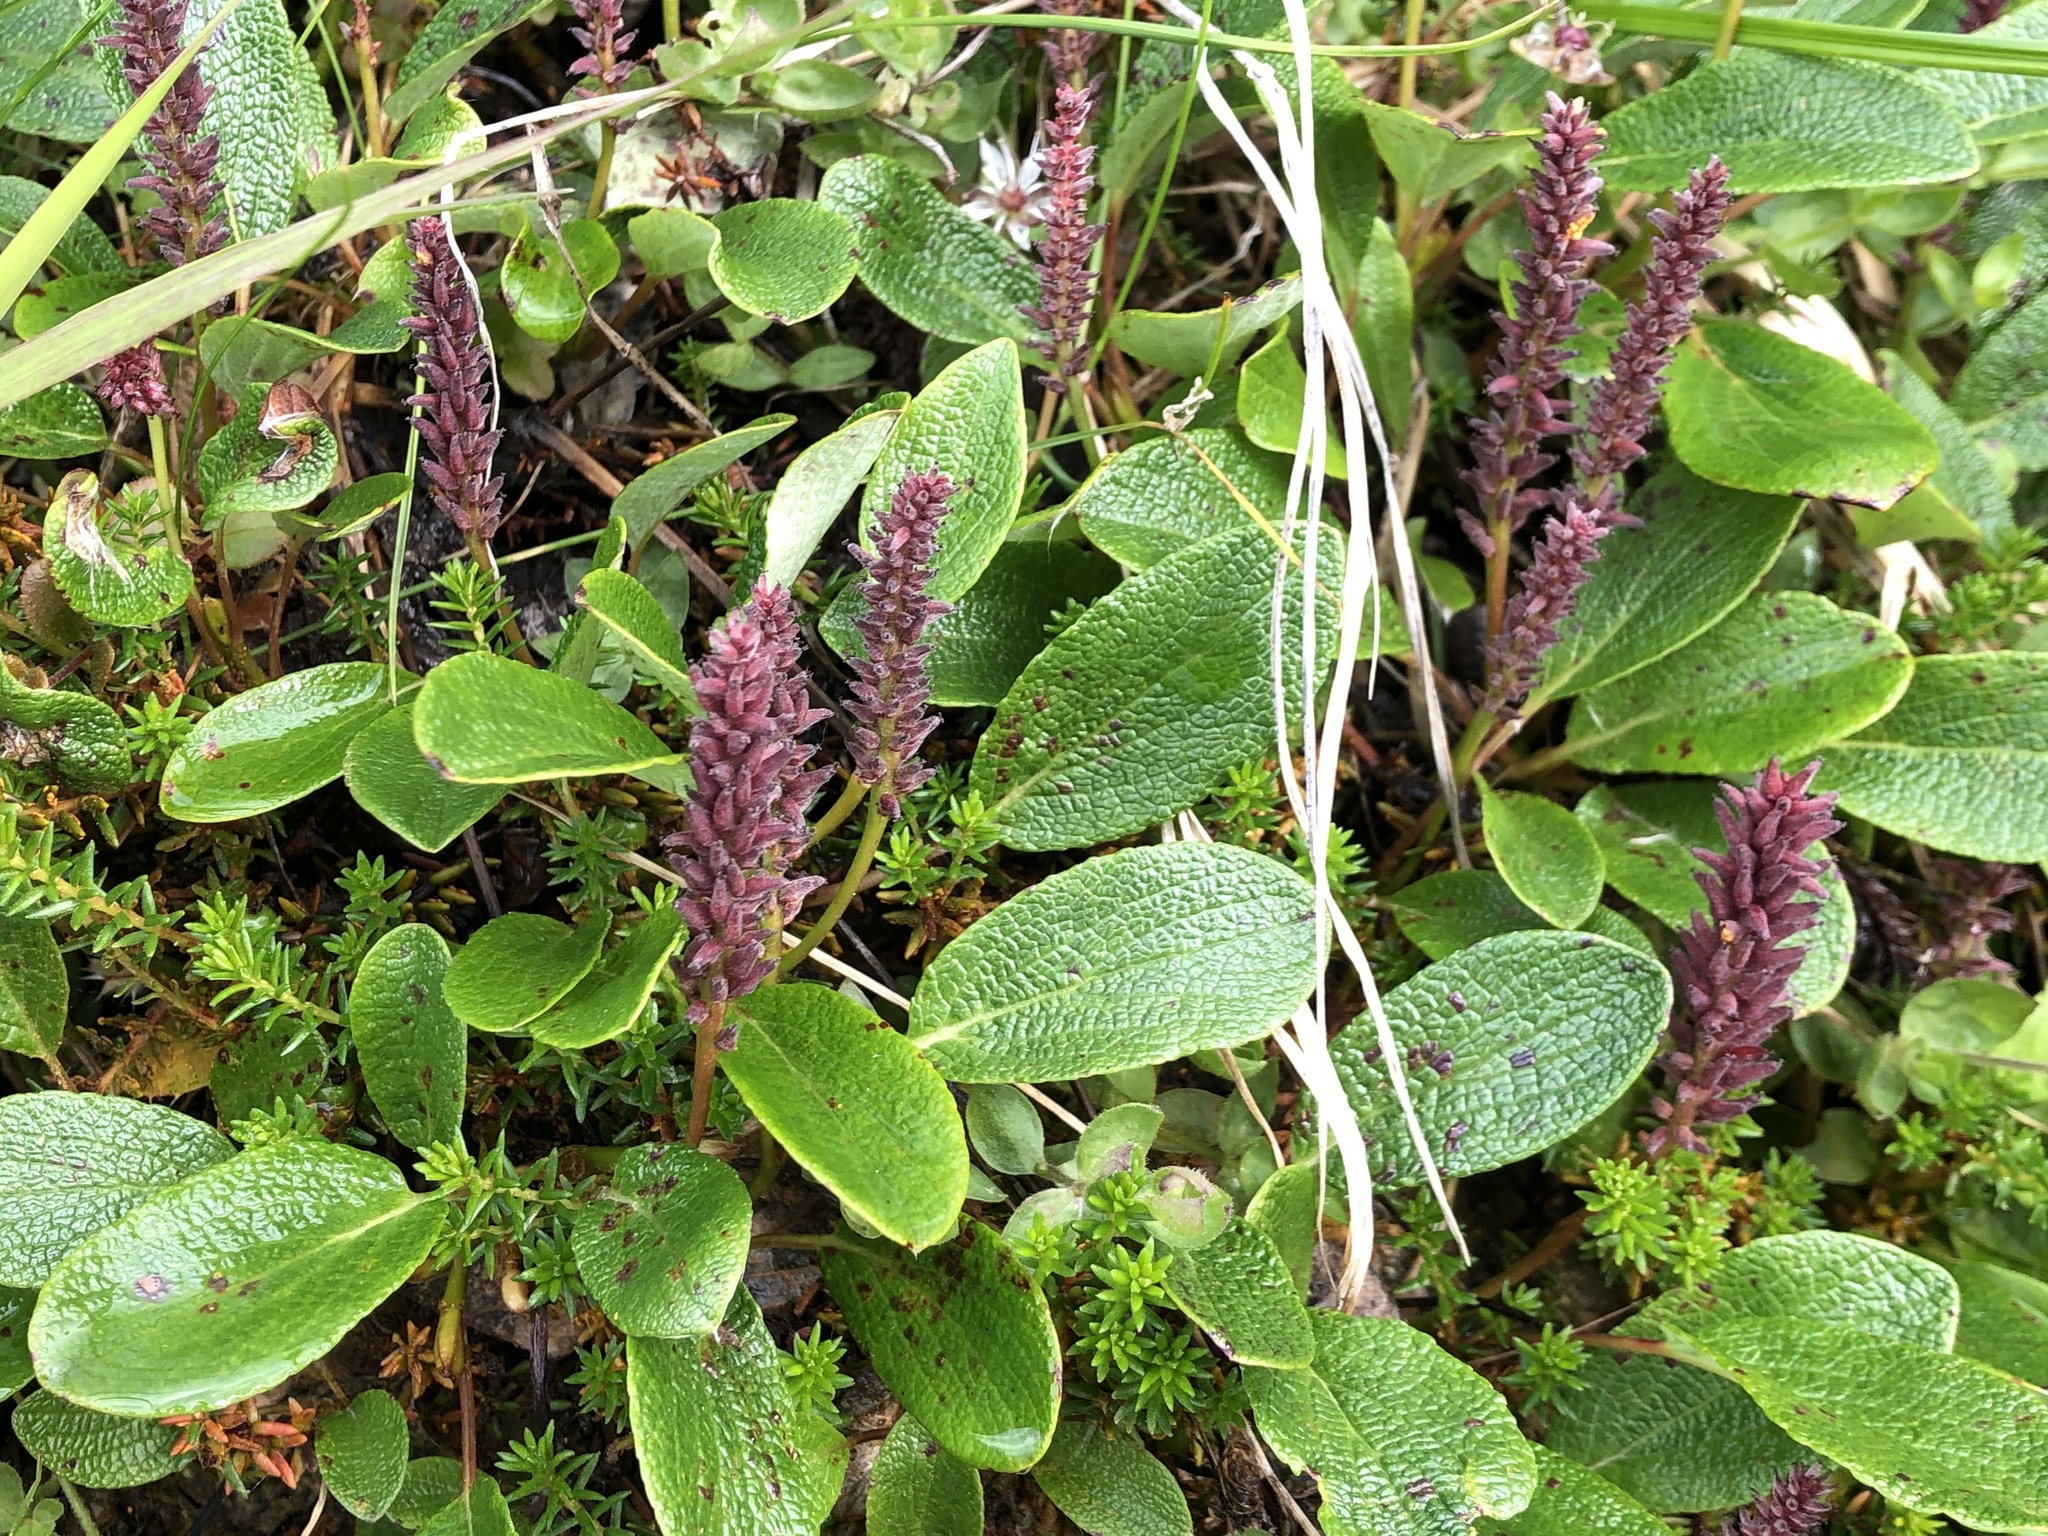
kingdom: Plantae
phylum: Tracheophyta
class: Magnoliopsida
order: Malpighiales
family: Salicaceae
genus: Salix
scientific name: Salix reticulata
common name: Net-leaved willow
